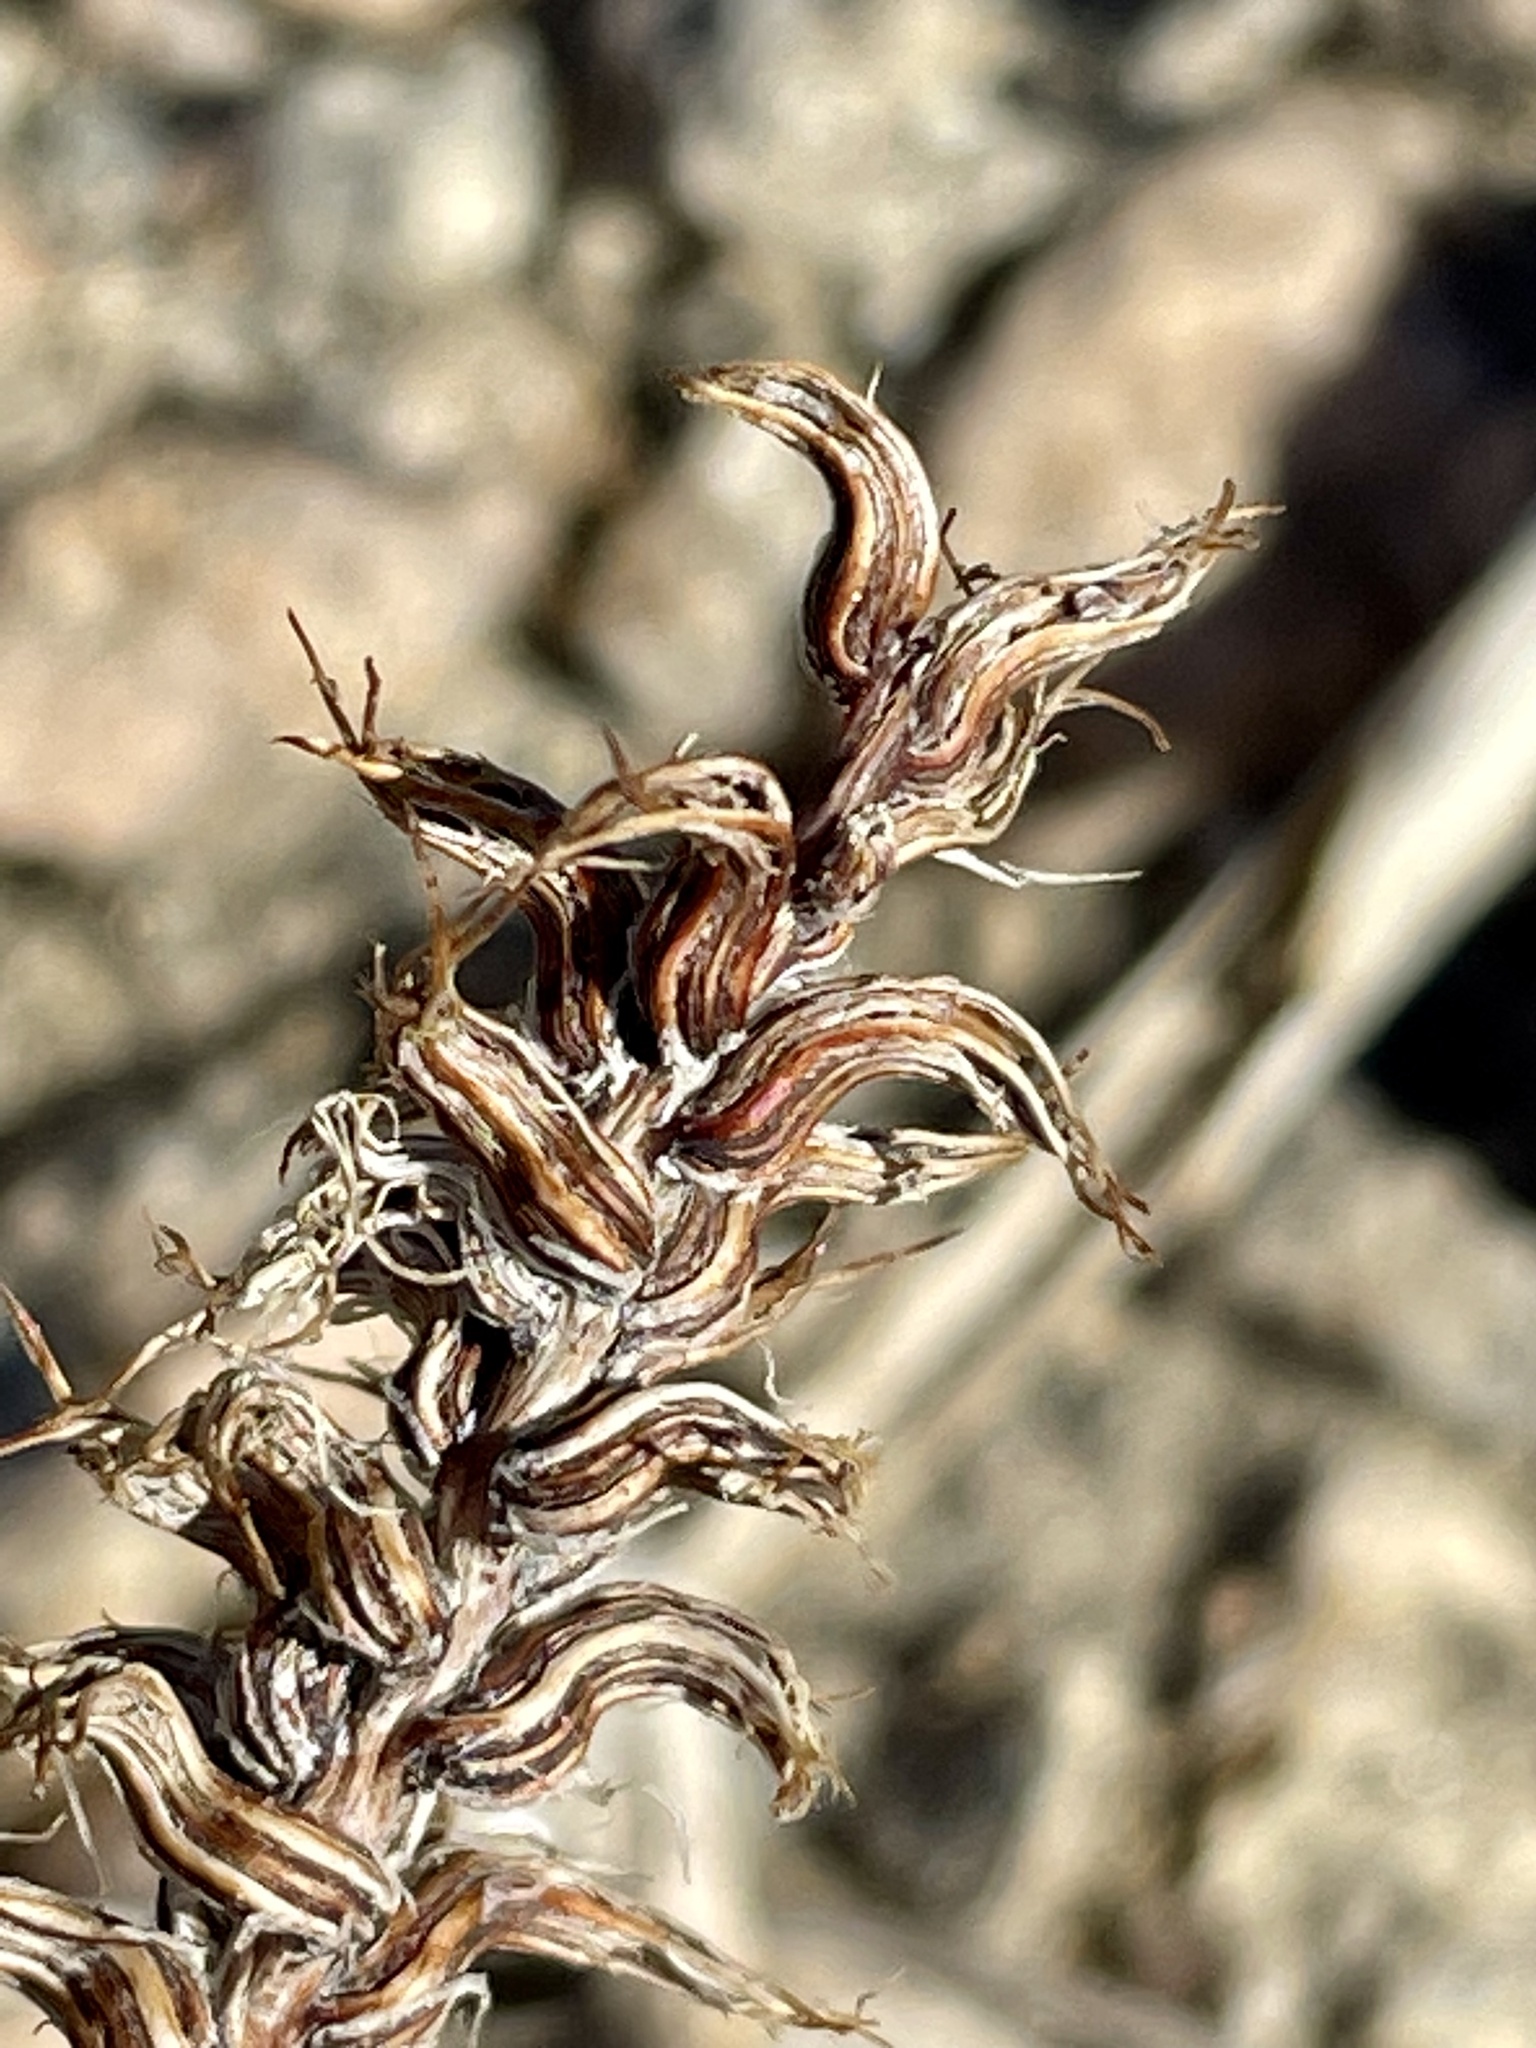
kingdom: Plantae
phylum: Tracheophyta
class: Magnoliopsida
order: Myrtales
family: Onagraceae
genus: Eremothera
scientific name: Eremothera boothii
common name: Booth's evening primrose
